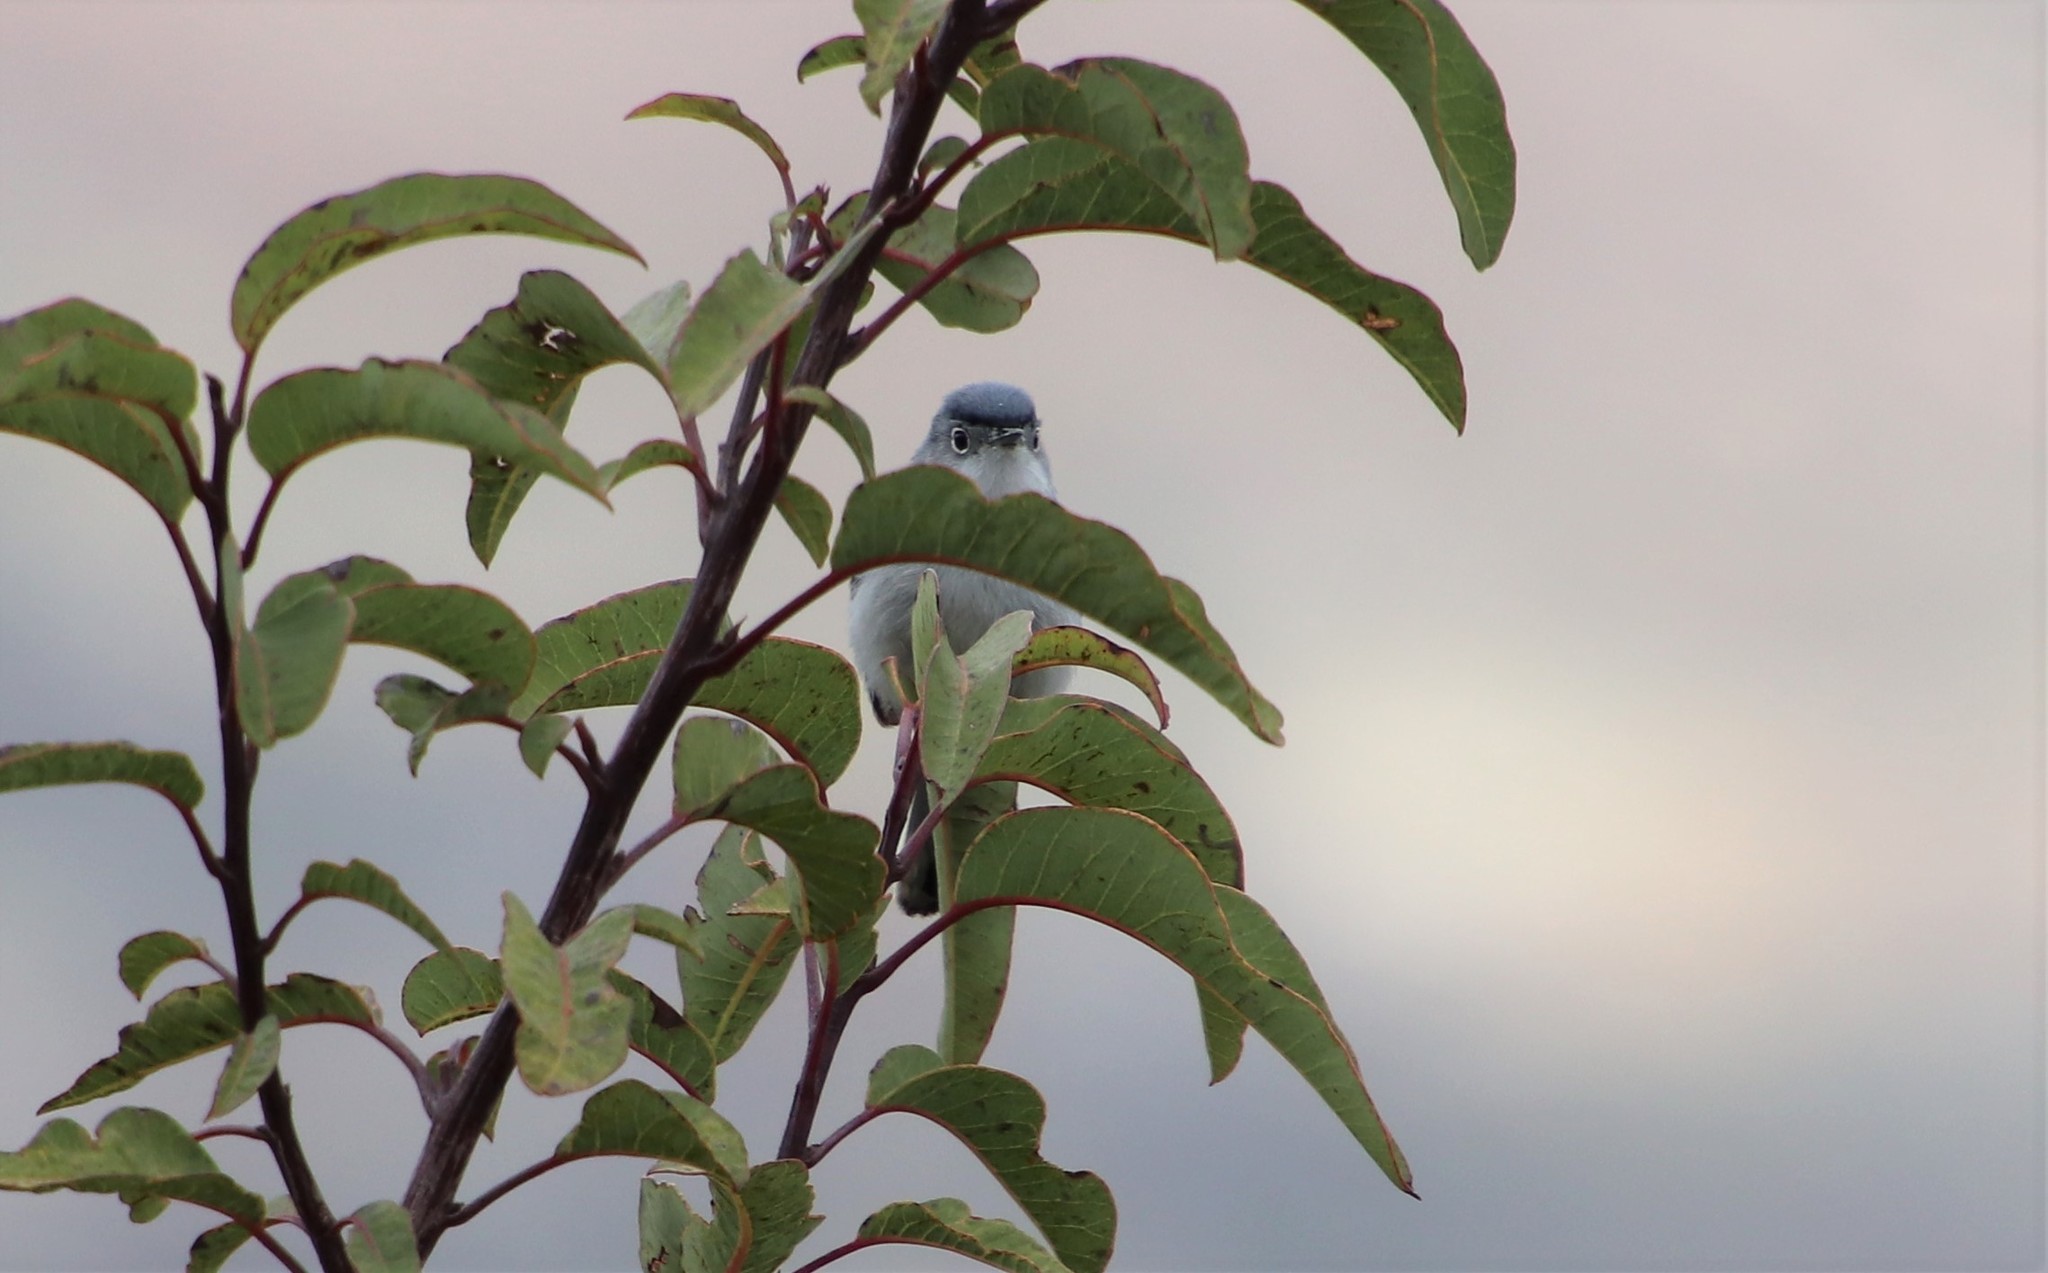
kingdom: Animalia
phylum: Chordata
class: Aves
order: Passeriformes
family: Polioptilidae
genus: Polioptila
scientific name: Polioptila caerulea
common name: Blue-gray gnatcatcher
